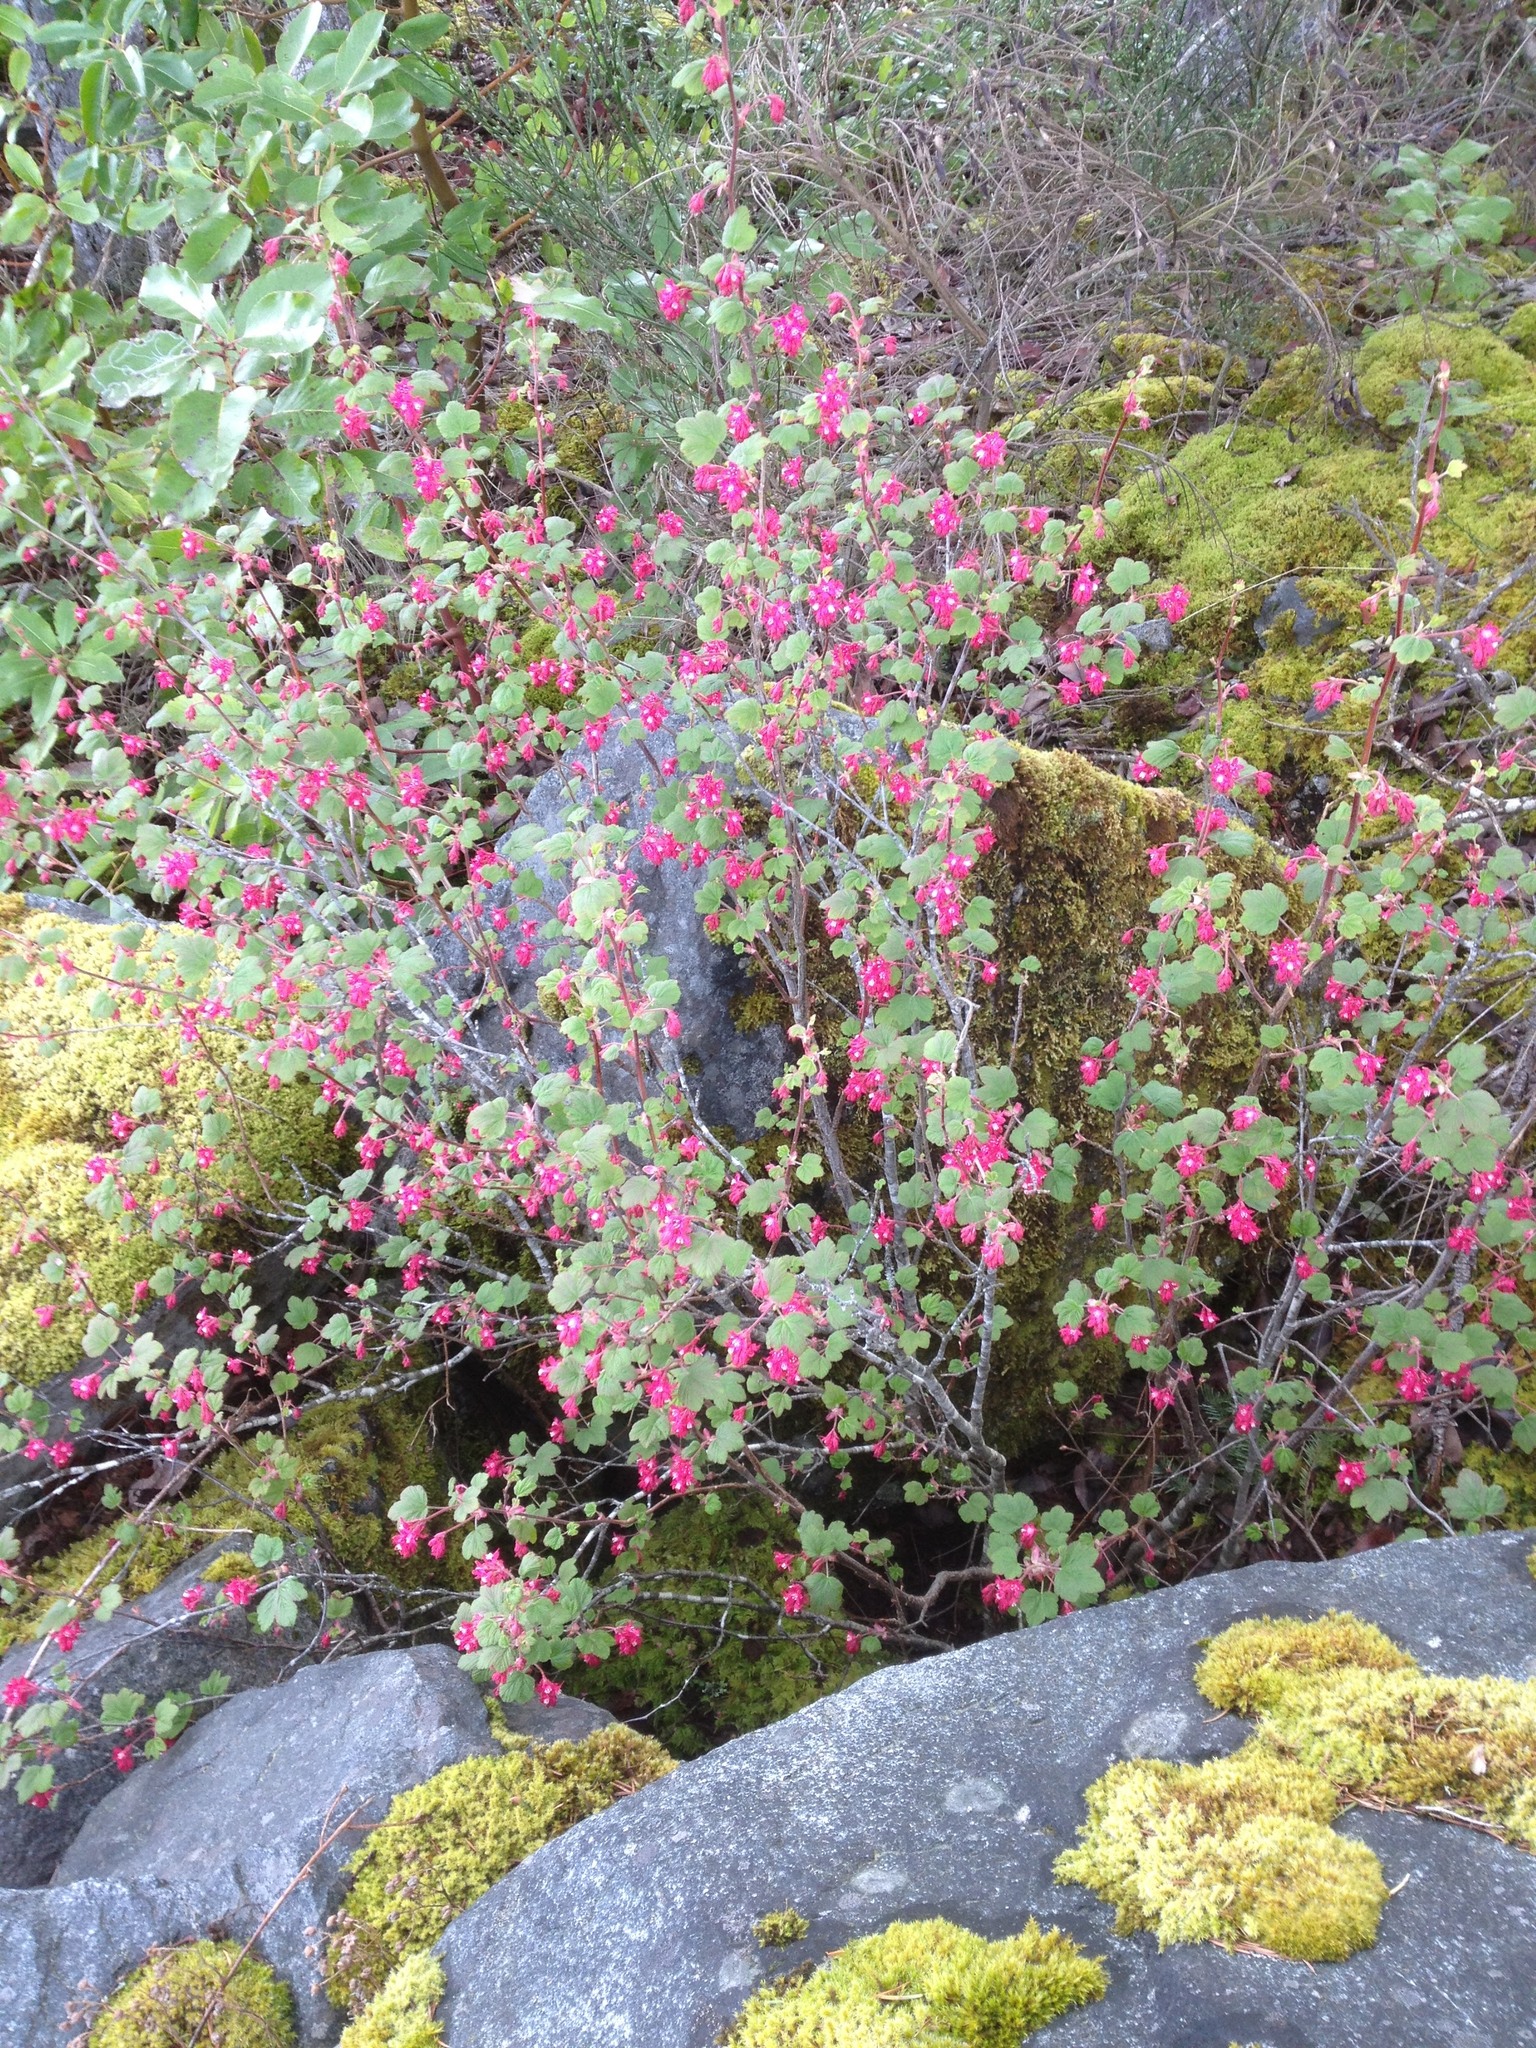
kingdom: Plantae
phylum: Tracheophyta
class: Magnoliopsida
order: Saxifragales
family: Grossulariaceae
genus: Ribes
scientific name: Ribes sanguineum
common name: Flowering currant
